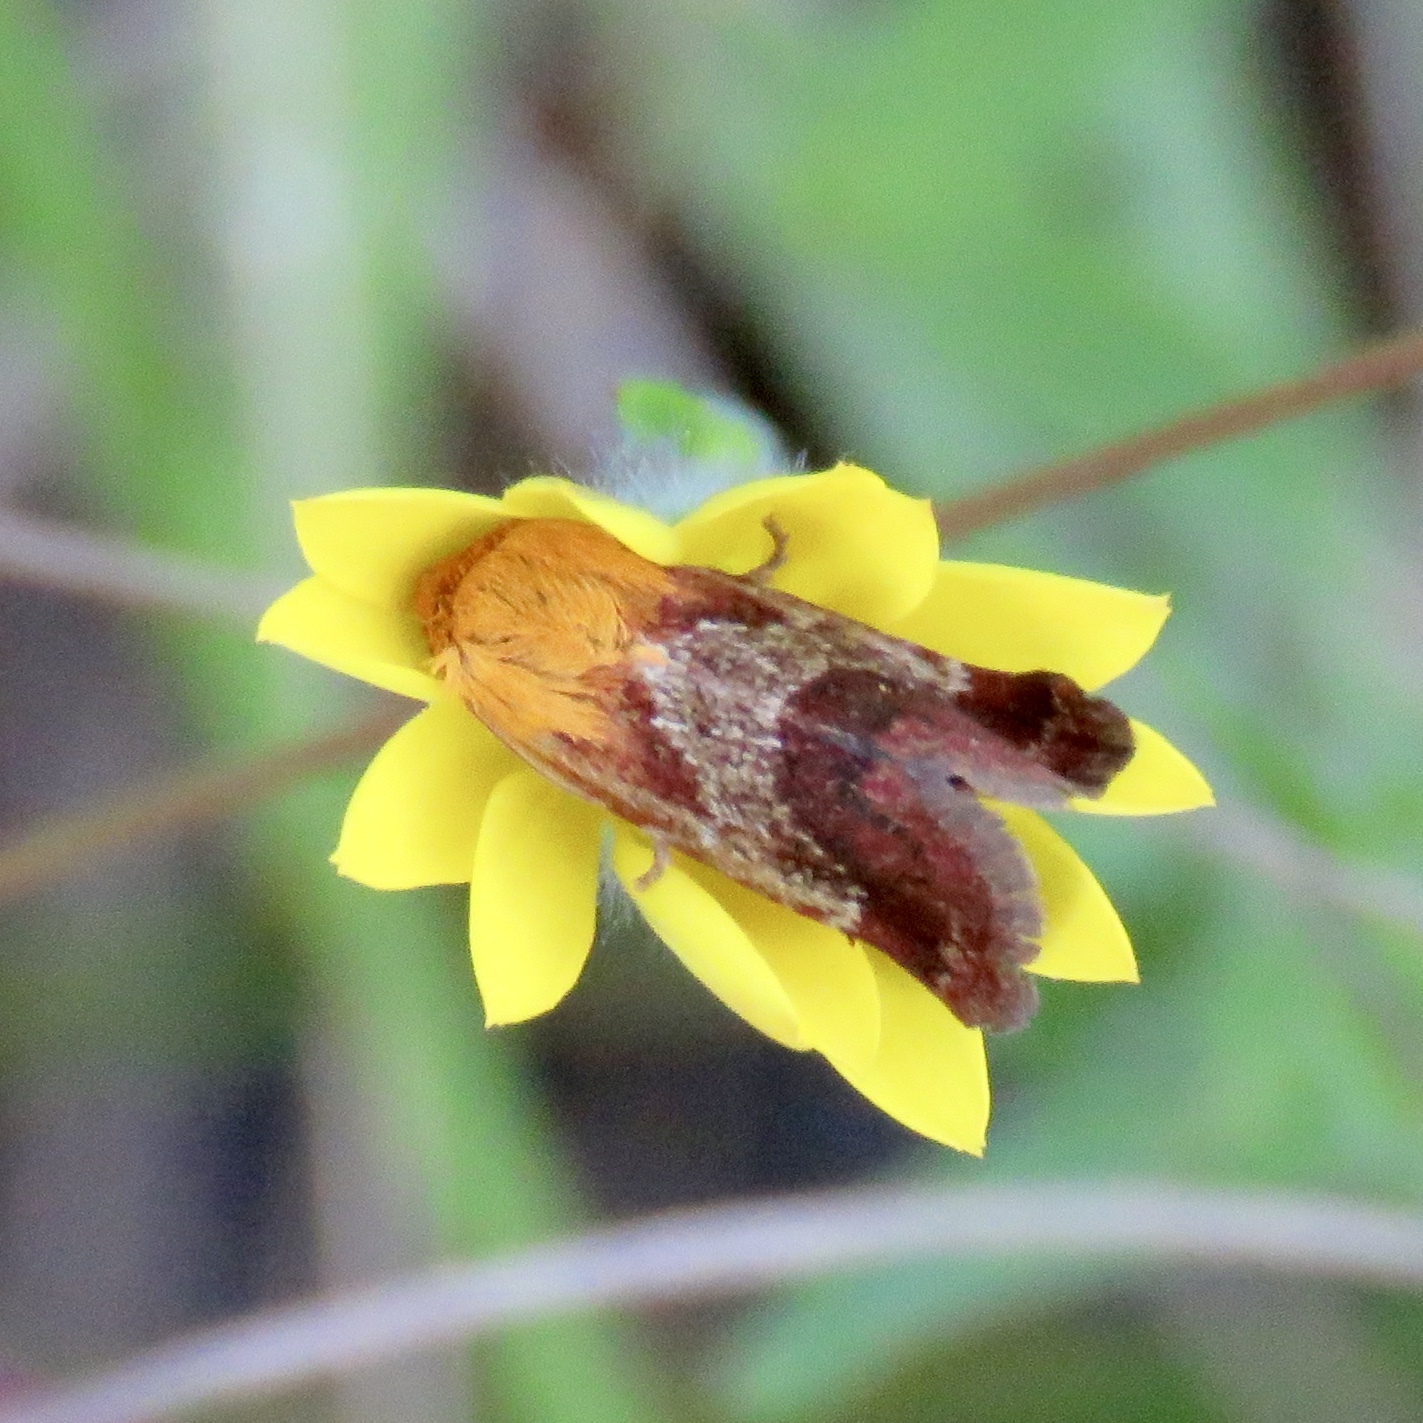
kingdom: Animalia
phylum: Arthropoda
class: Insecta
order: Lepidoptera
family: Noctuidae
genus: Schinia
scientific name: Schinia varix
